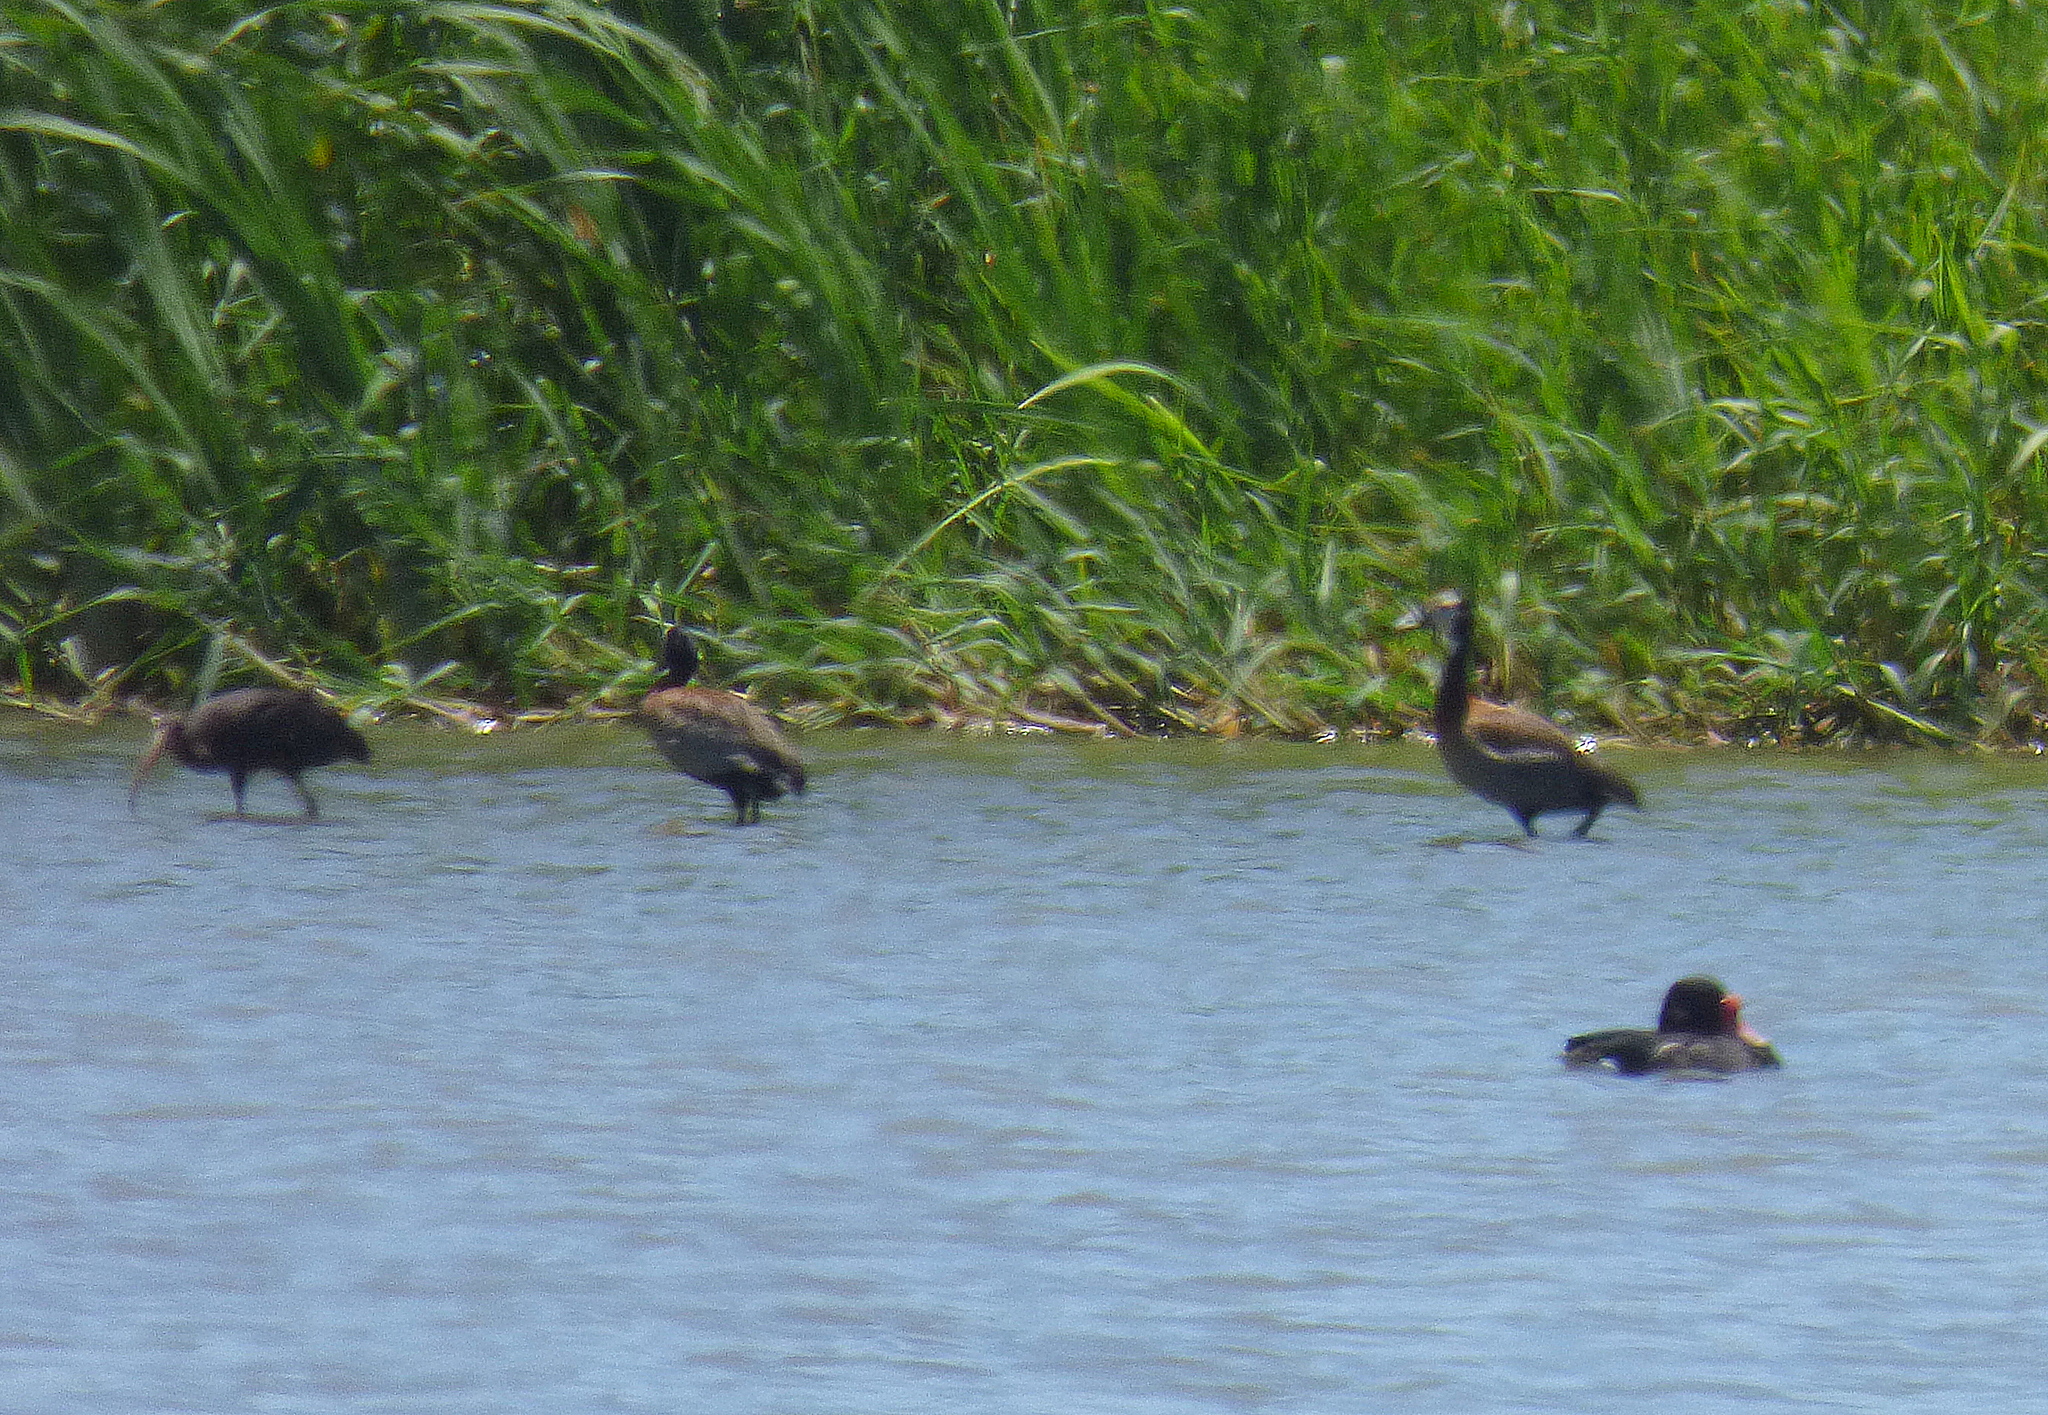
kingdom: Animalia
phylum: Chordata
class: Aves
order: Anseriformes
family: Anatidae
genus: Dendrocygna
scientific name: Dendrocygna viduata
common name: White-faced whistling duck
